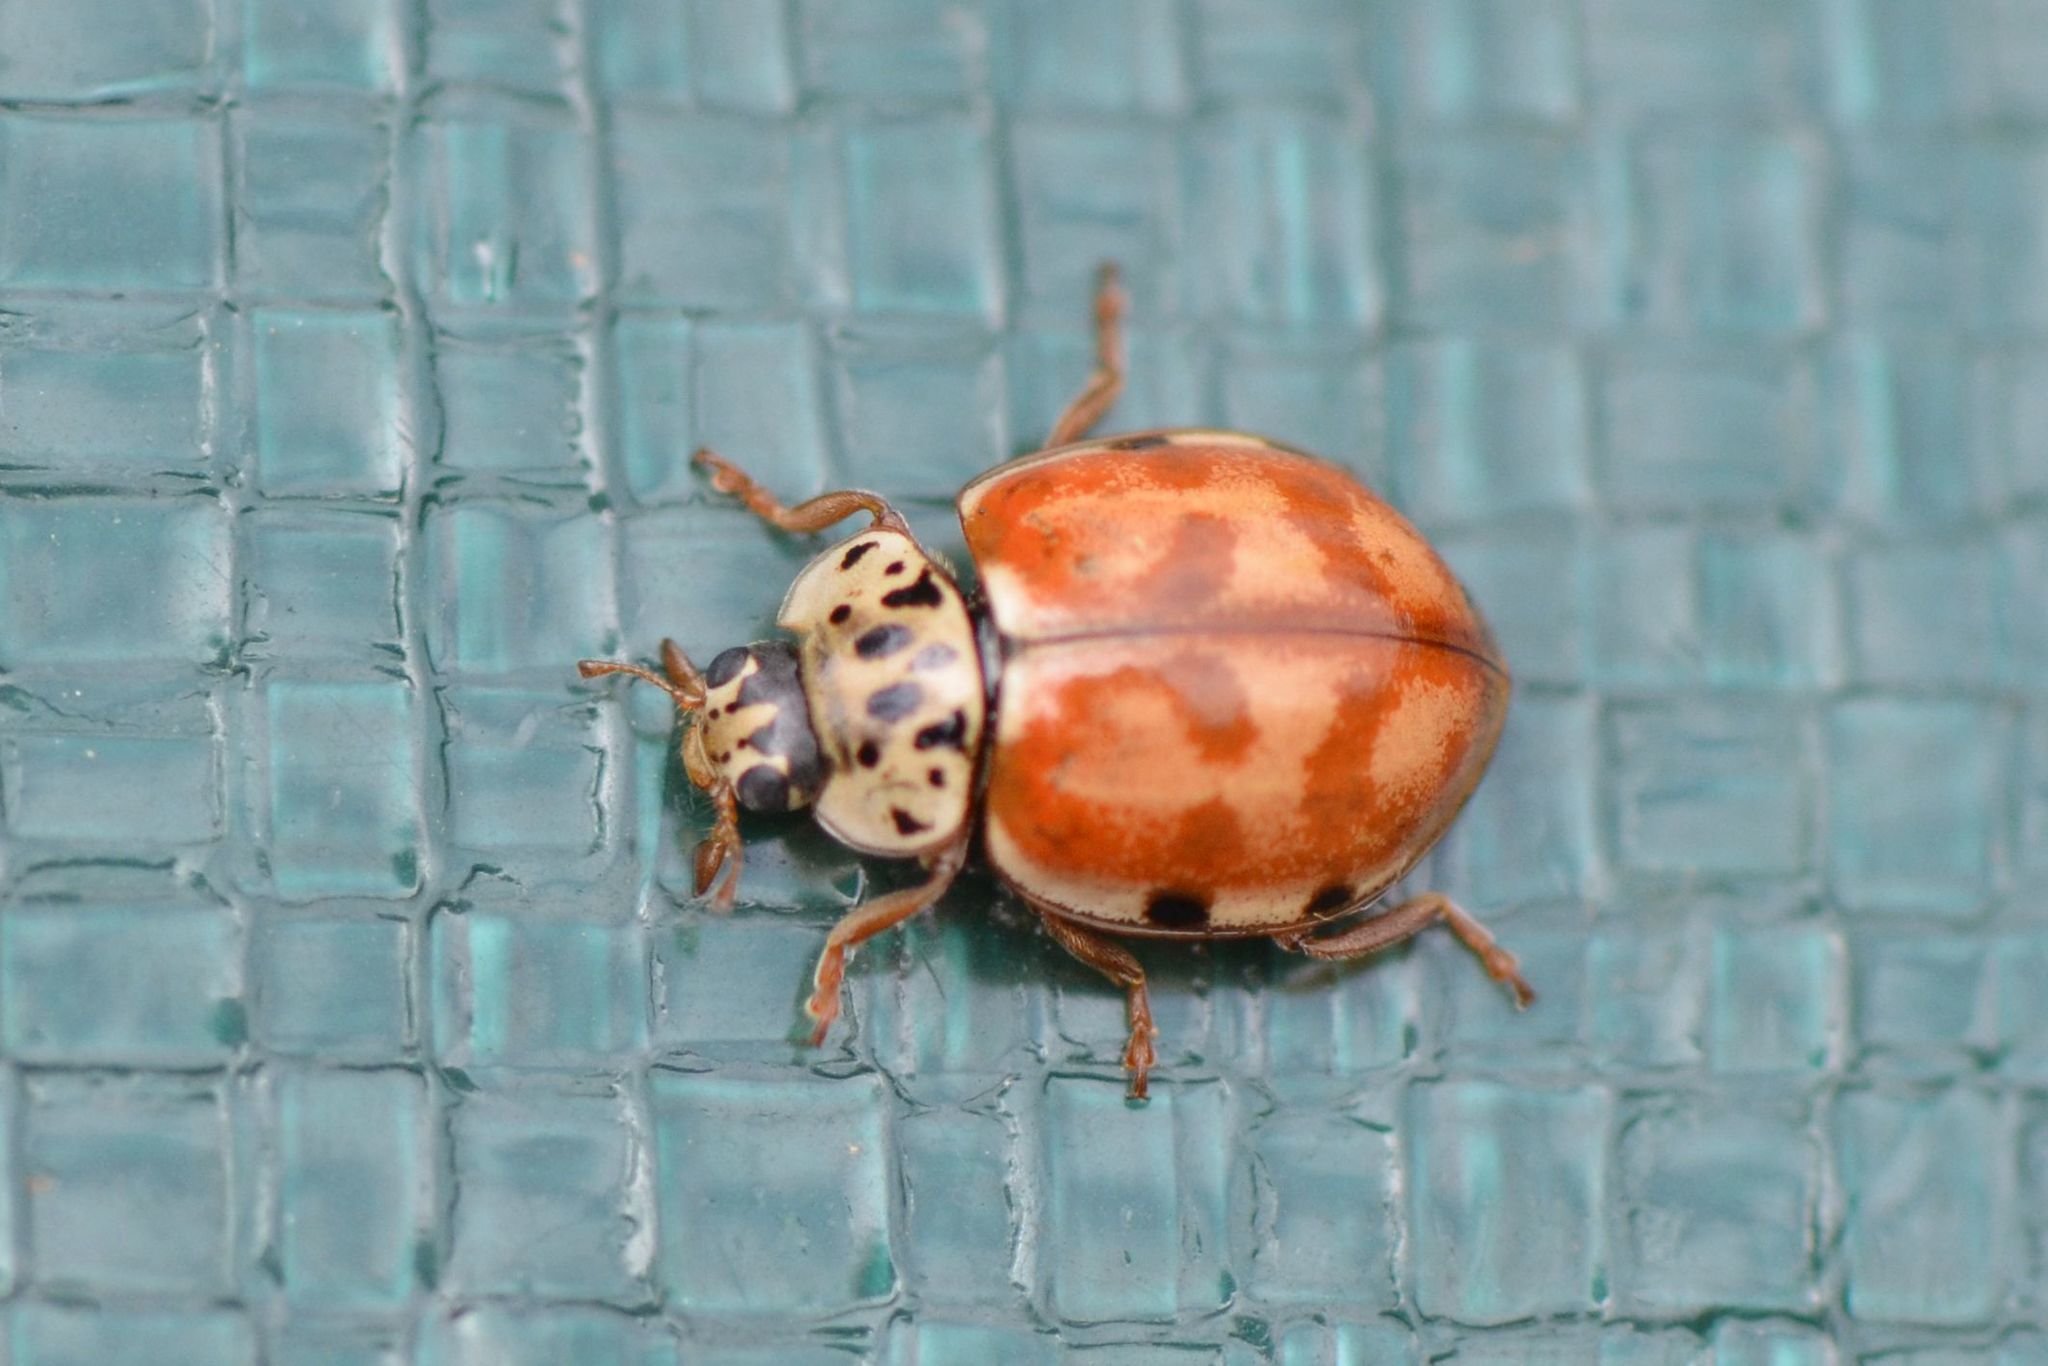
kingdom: Animalia
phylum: Arthropoda
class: Insecta
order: Coleoptera
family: Coccinellidae
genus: Harmonia
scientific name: Harmonia quadripunctata
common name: Cream-streaked ladybird
